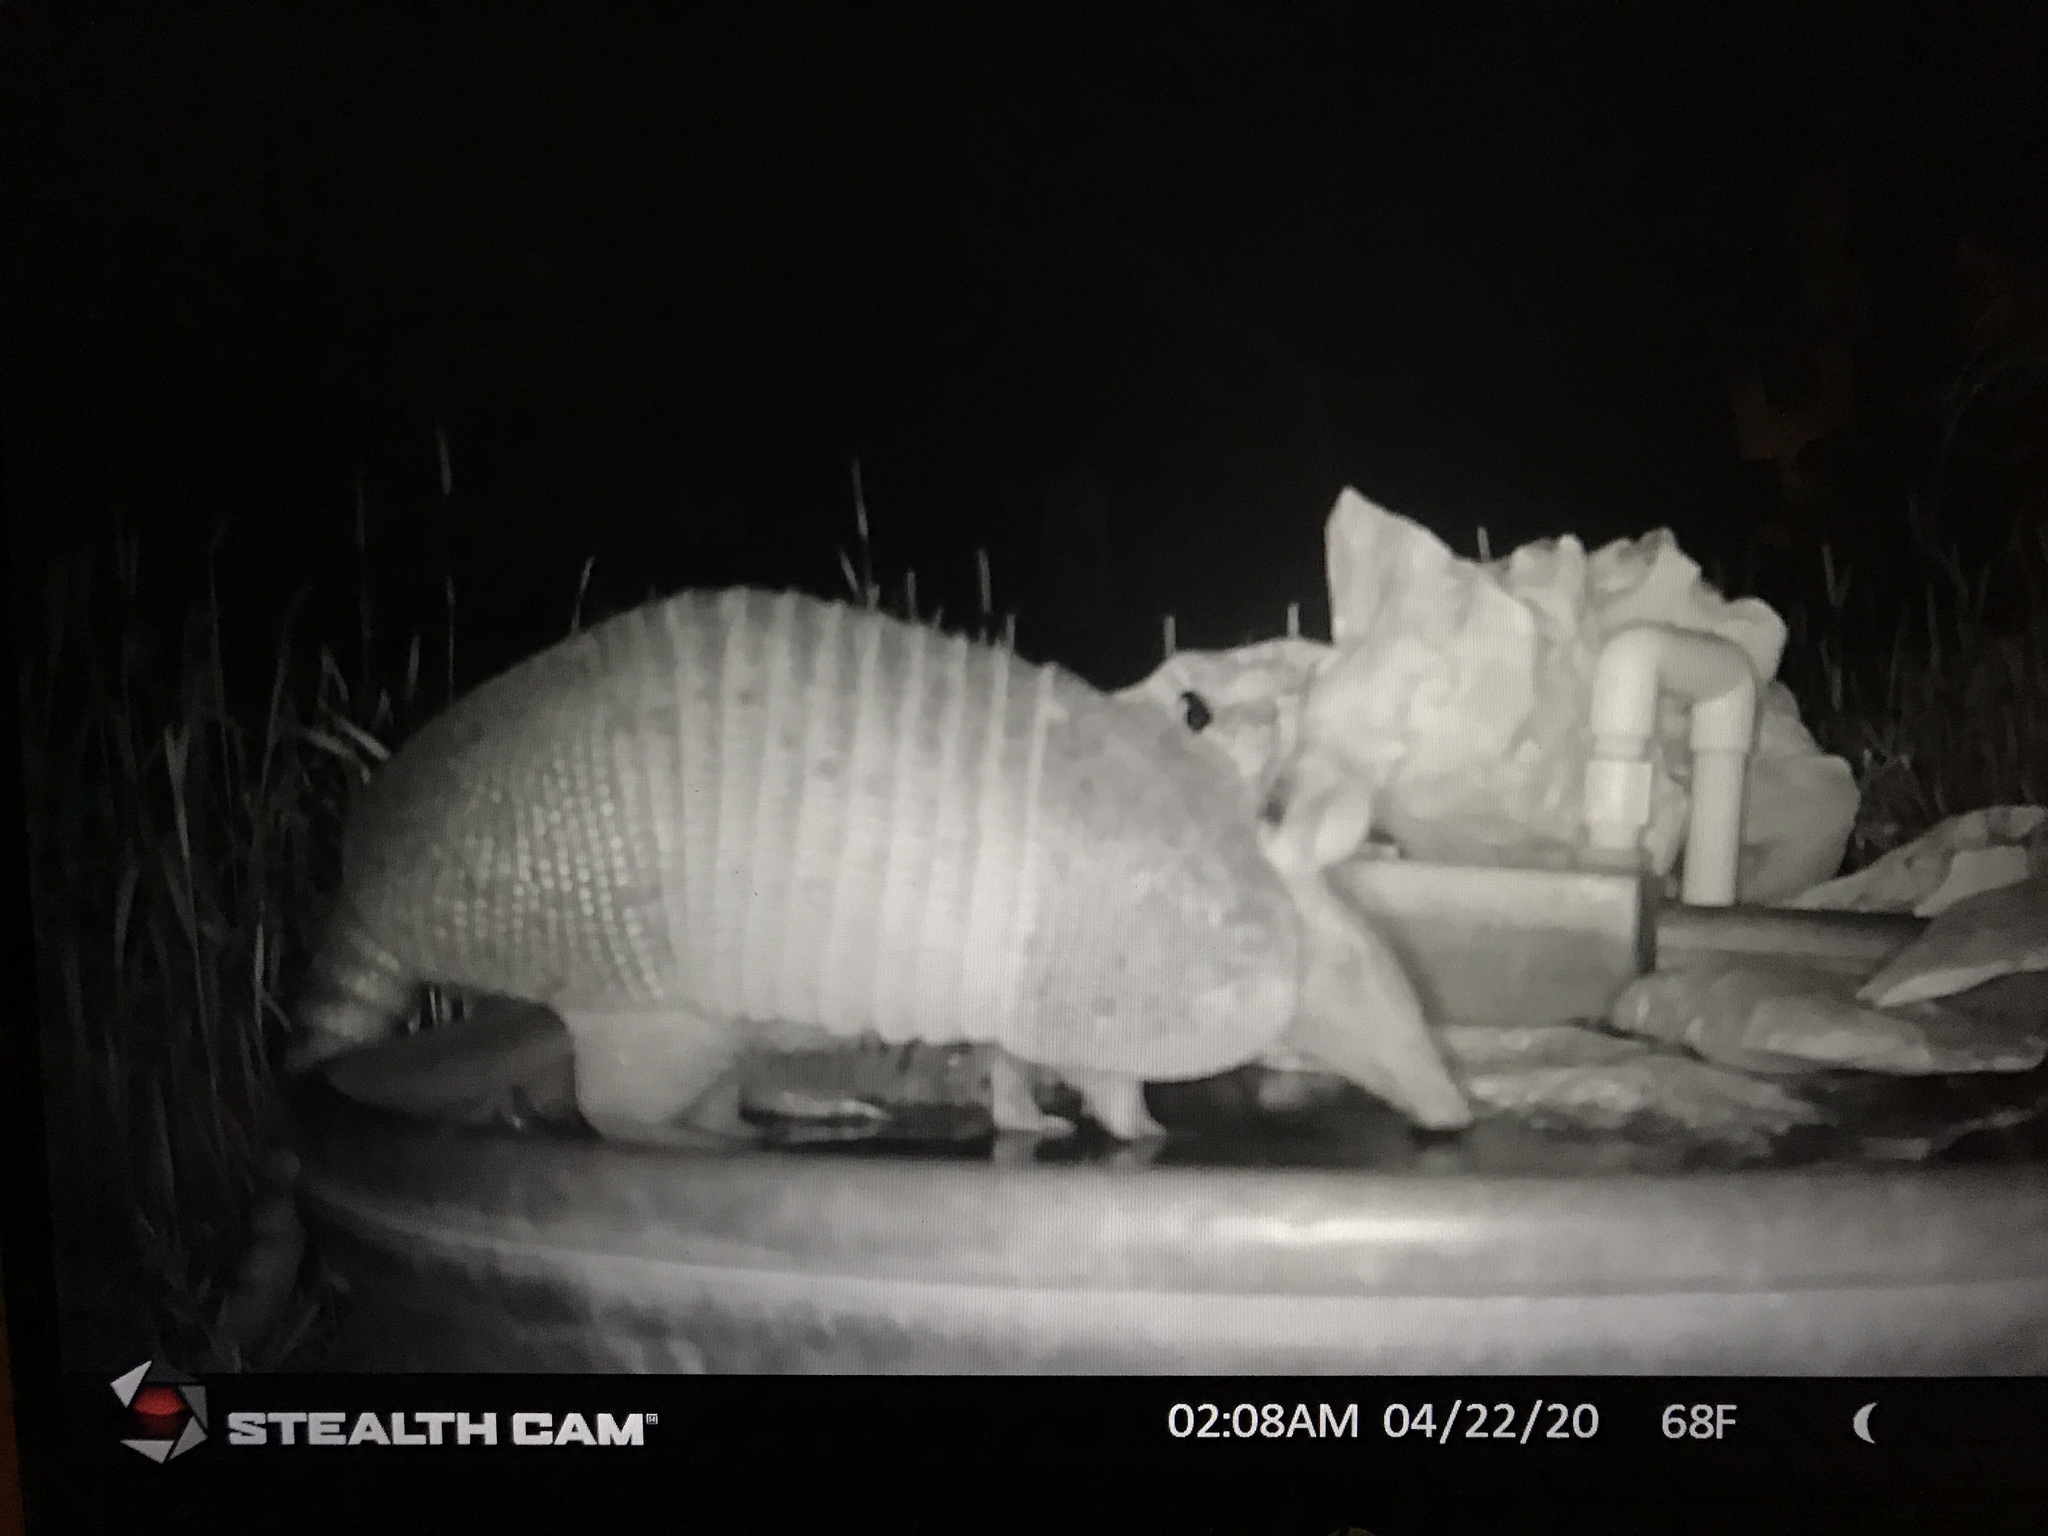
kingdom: Animalia
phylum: Chordata
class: Mammalia
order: Cingulata
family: Dasypodidae
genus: Dasypus
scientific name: Dasypus novemcinctus
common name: Nine-banded armadillo
